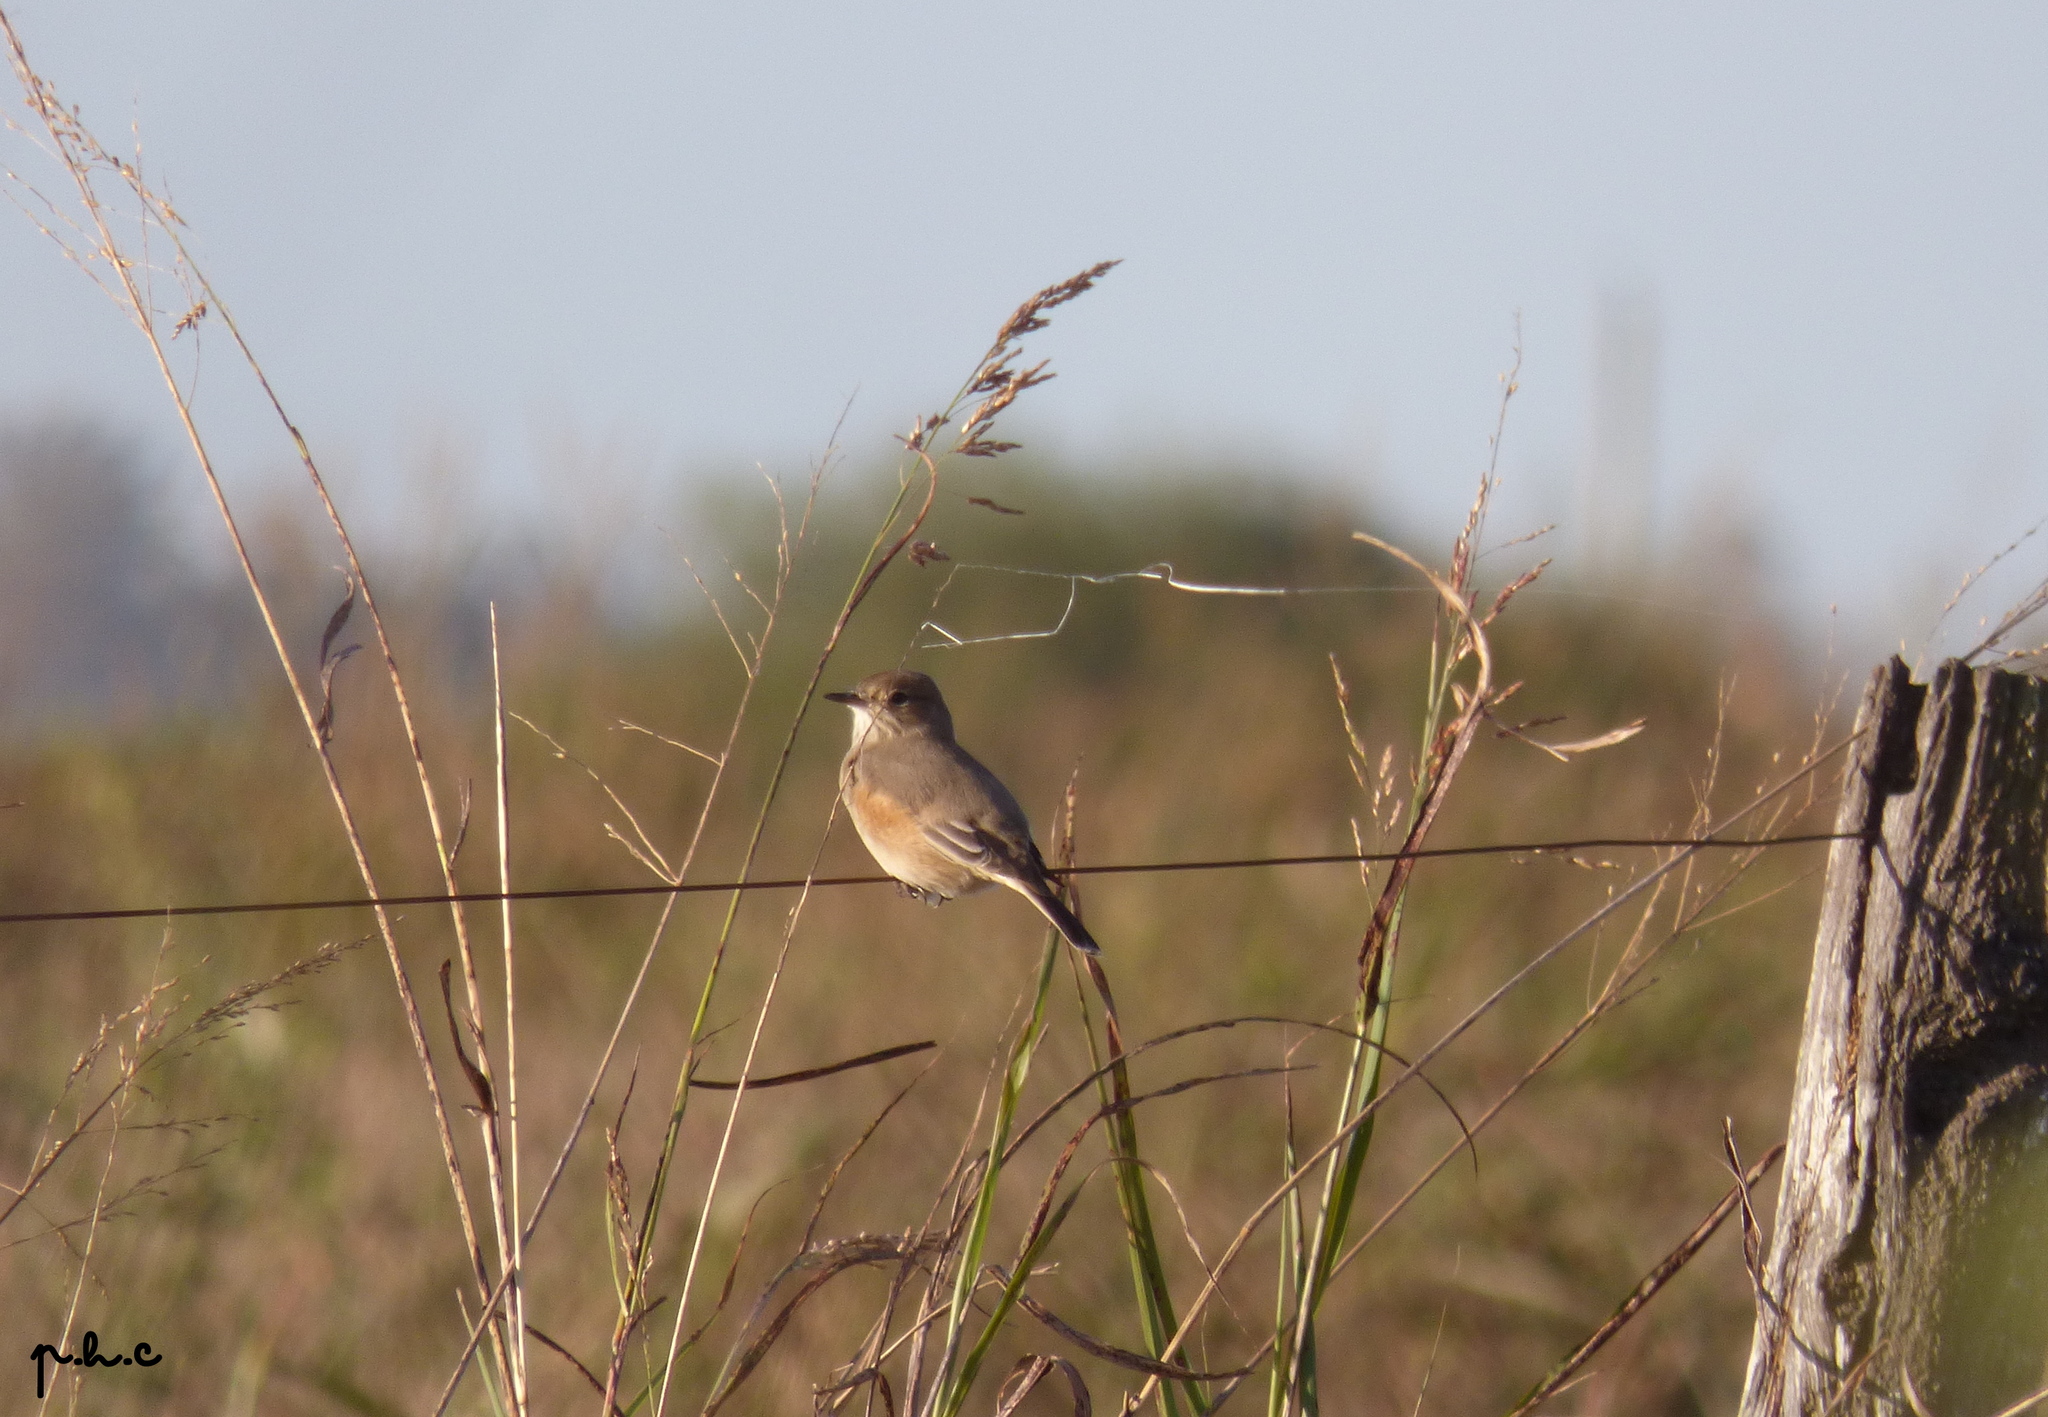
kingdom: Animalia
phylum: Chordata
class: Aves
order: Passeriformes
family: Tyrannidae
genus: Agriornis
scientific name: Agriornis murinus
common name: Lesser shrike-tyrant
